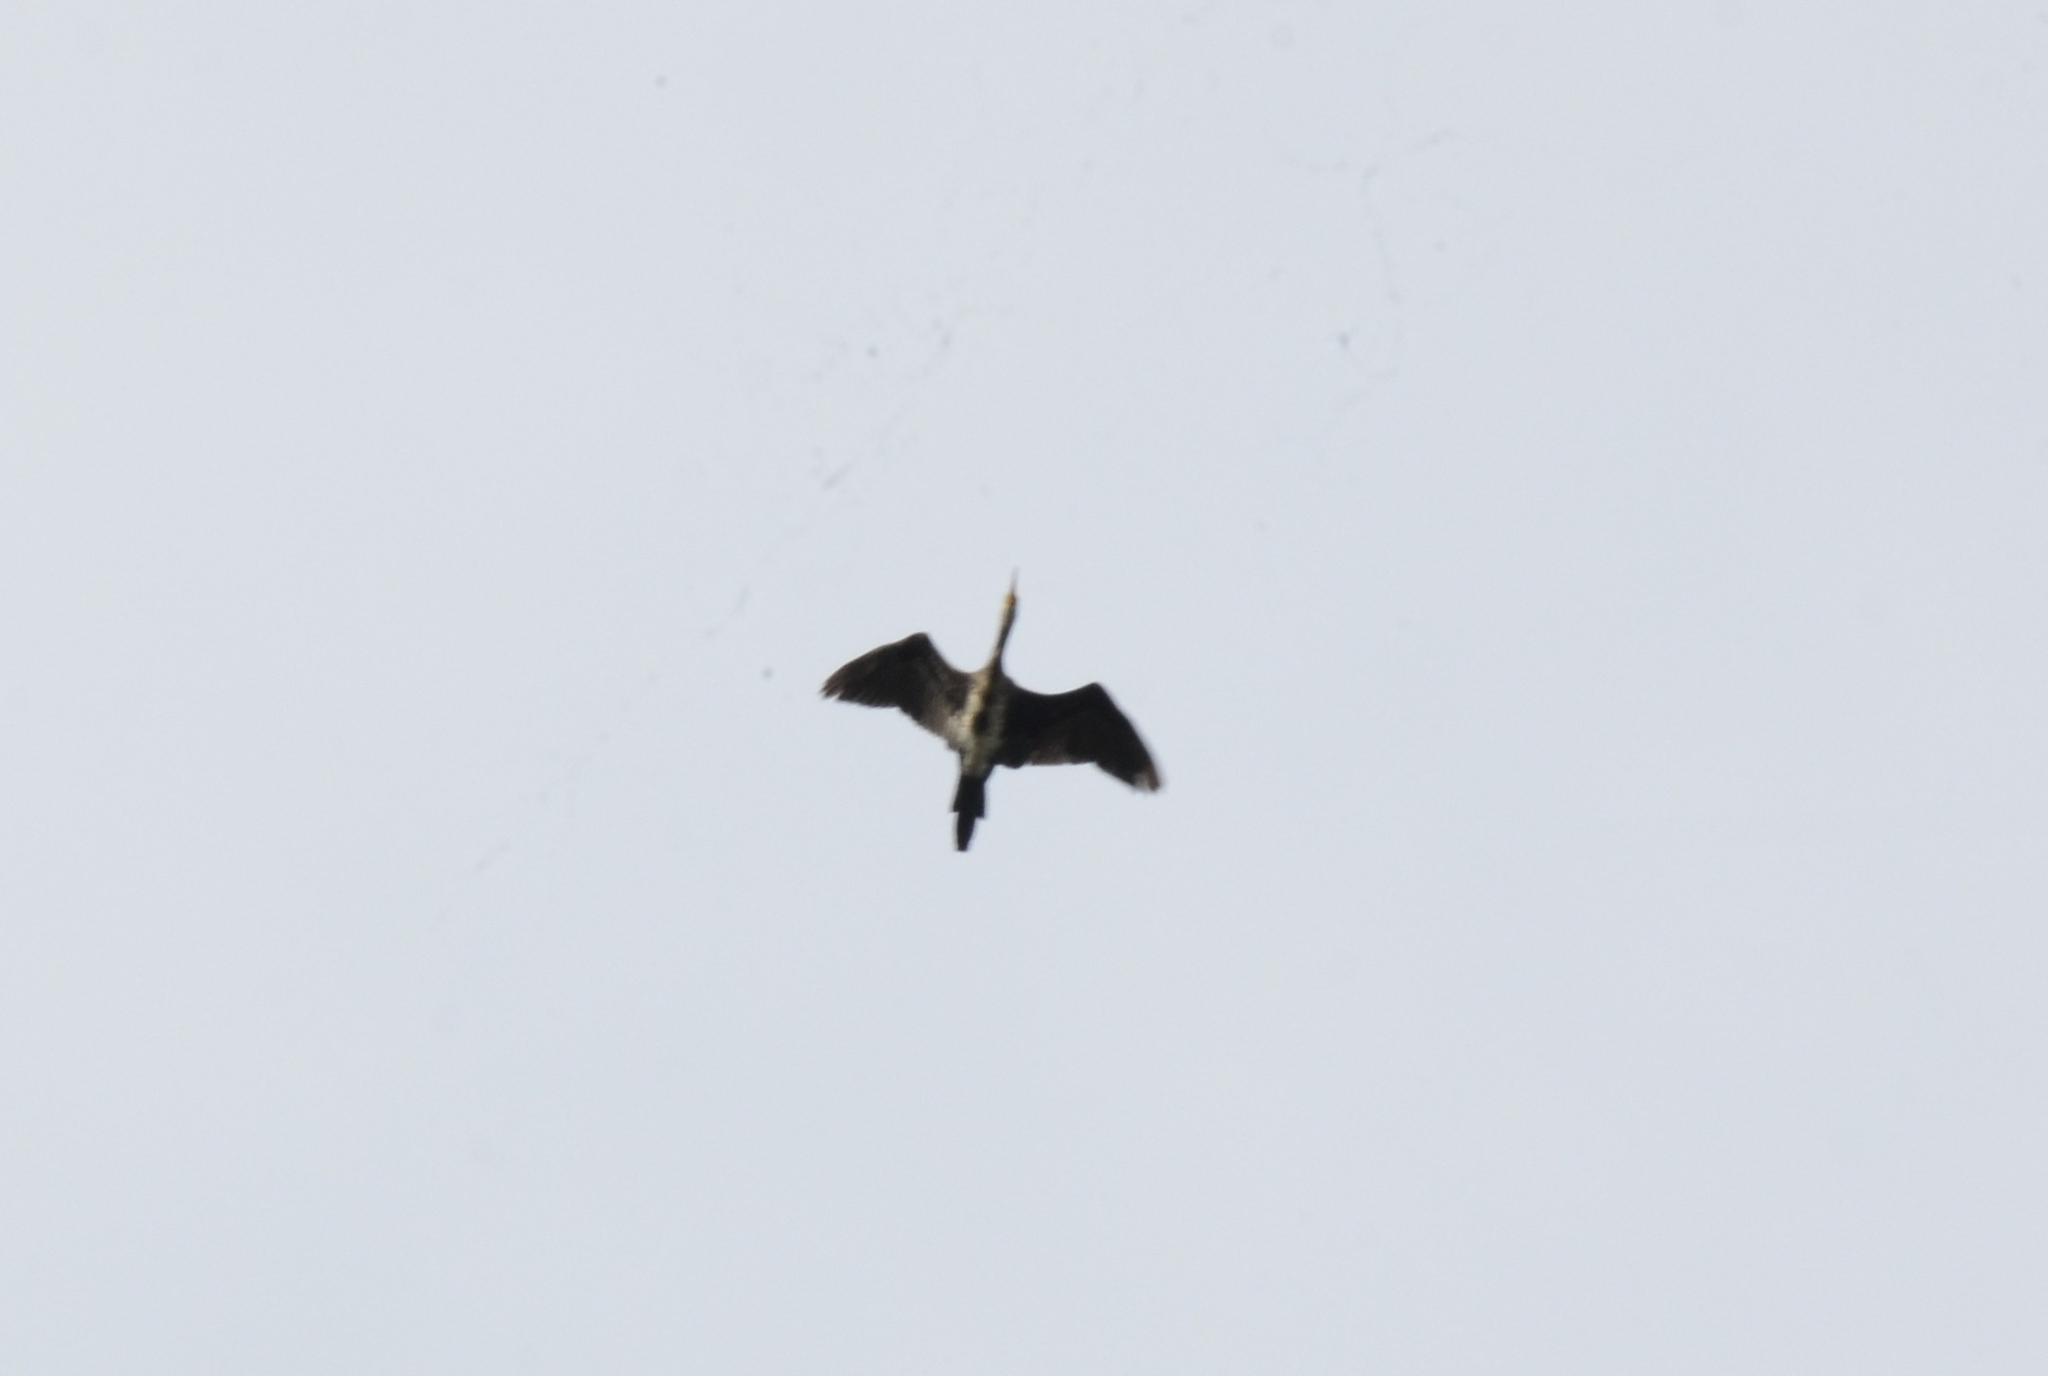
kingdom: Animalia
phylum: Chordata
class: Aves
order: Suliformes
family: Phalacrocoracidae
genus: Phalacrocorax
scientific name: Phalacrocorax fuscicollis
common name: Indian cormorant
